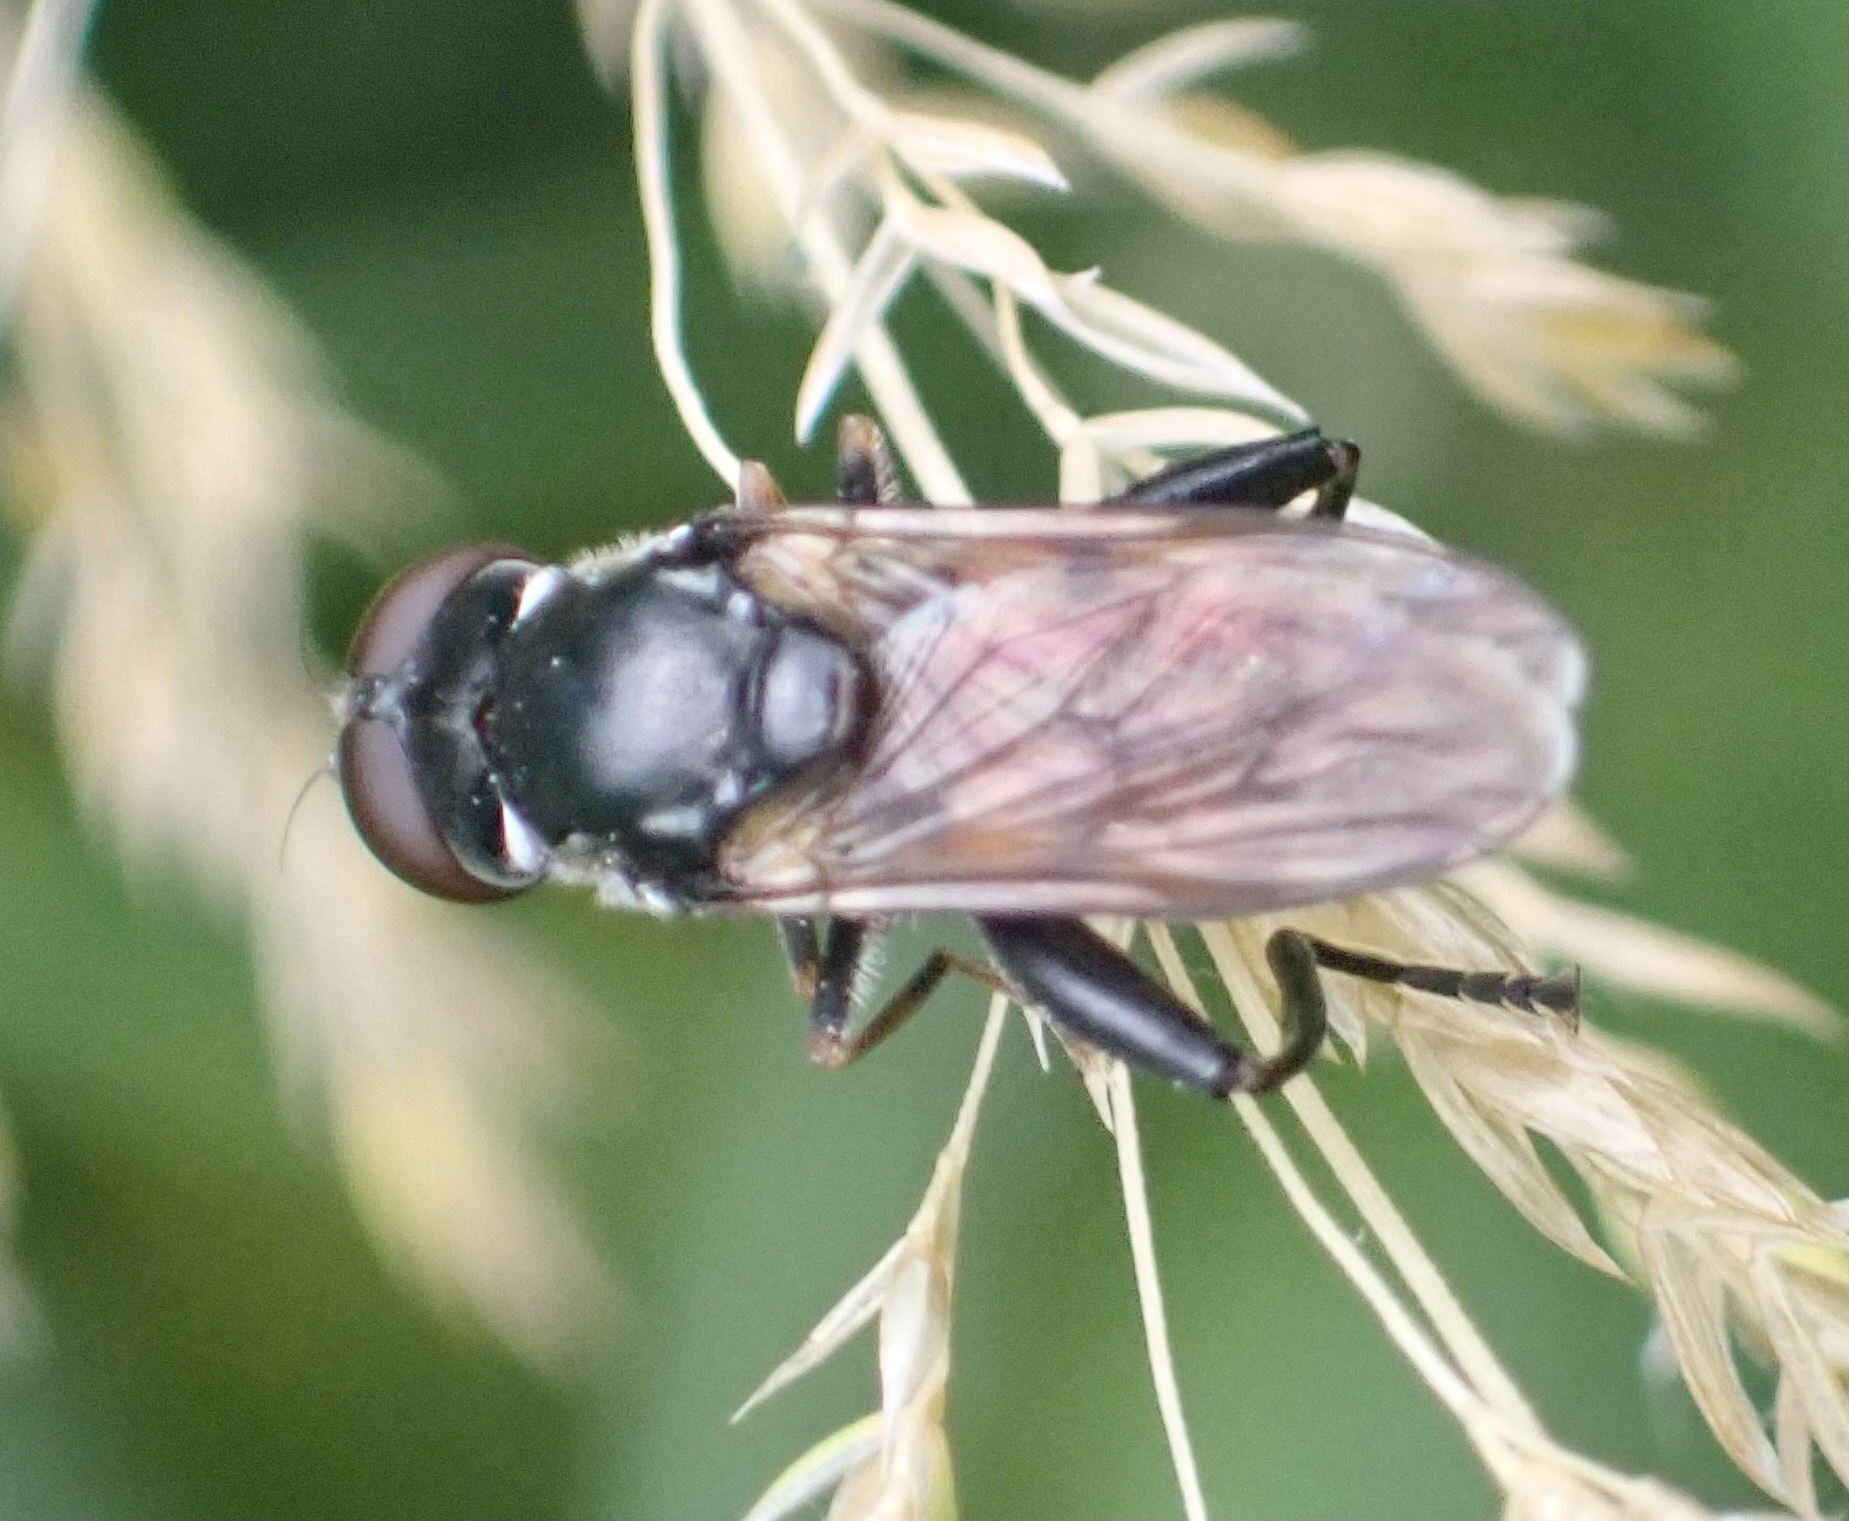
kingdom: Animalia
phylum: Arthropoda
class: Insecta
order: Diptera
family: Syrphidae
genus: Tropidia
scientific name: Tropidia scita
